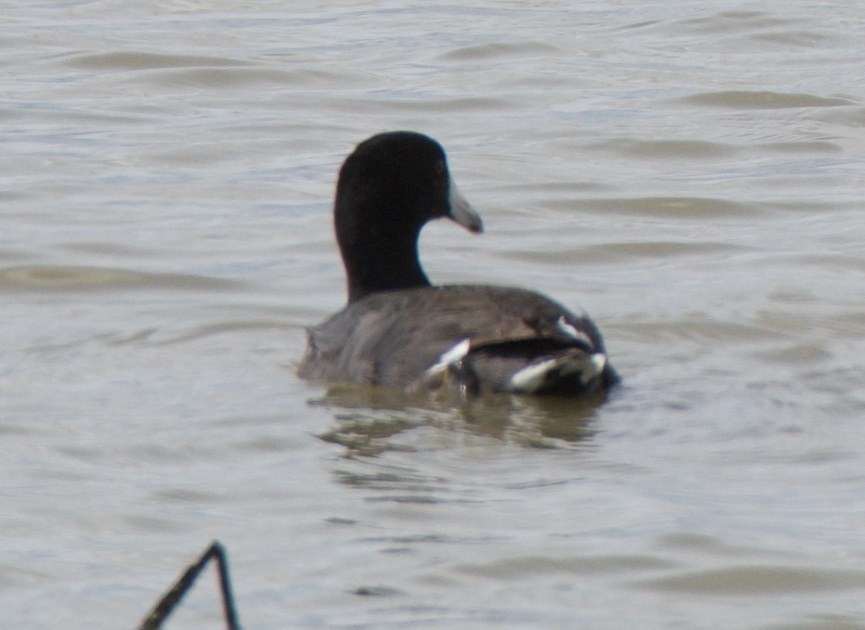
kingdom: Animalia
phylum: Chordata
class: Aves
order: Gruiformes
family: Rallidae
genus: Fulica
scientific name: Fulica americana
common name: American coot
